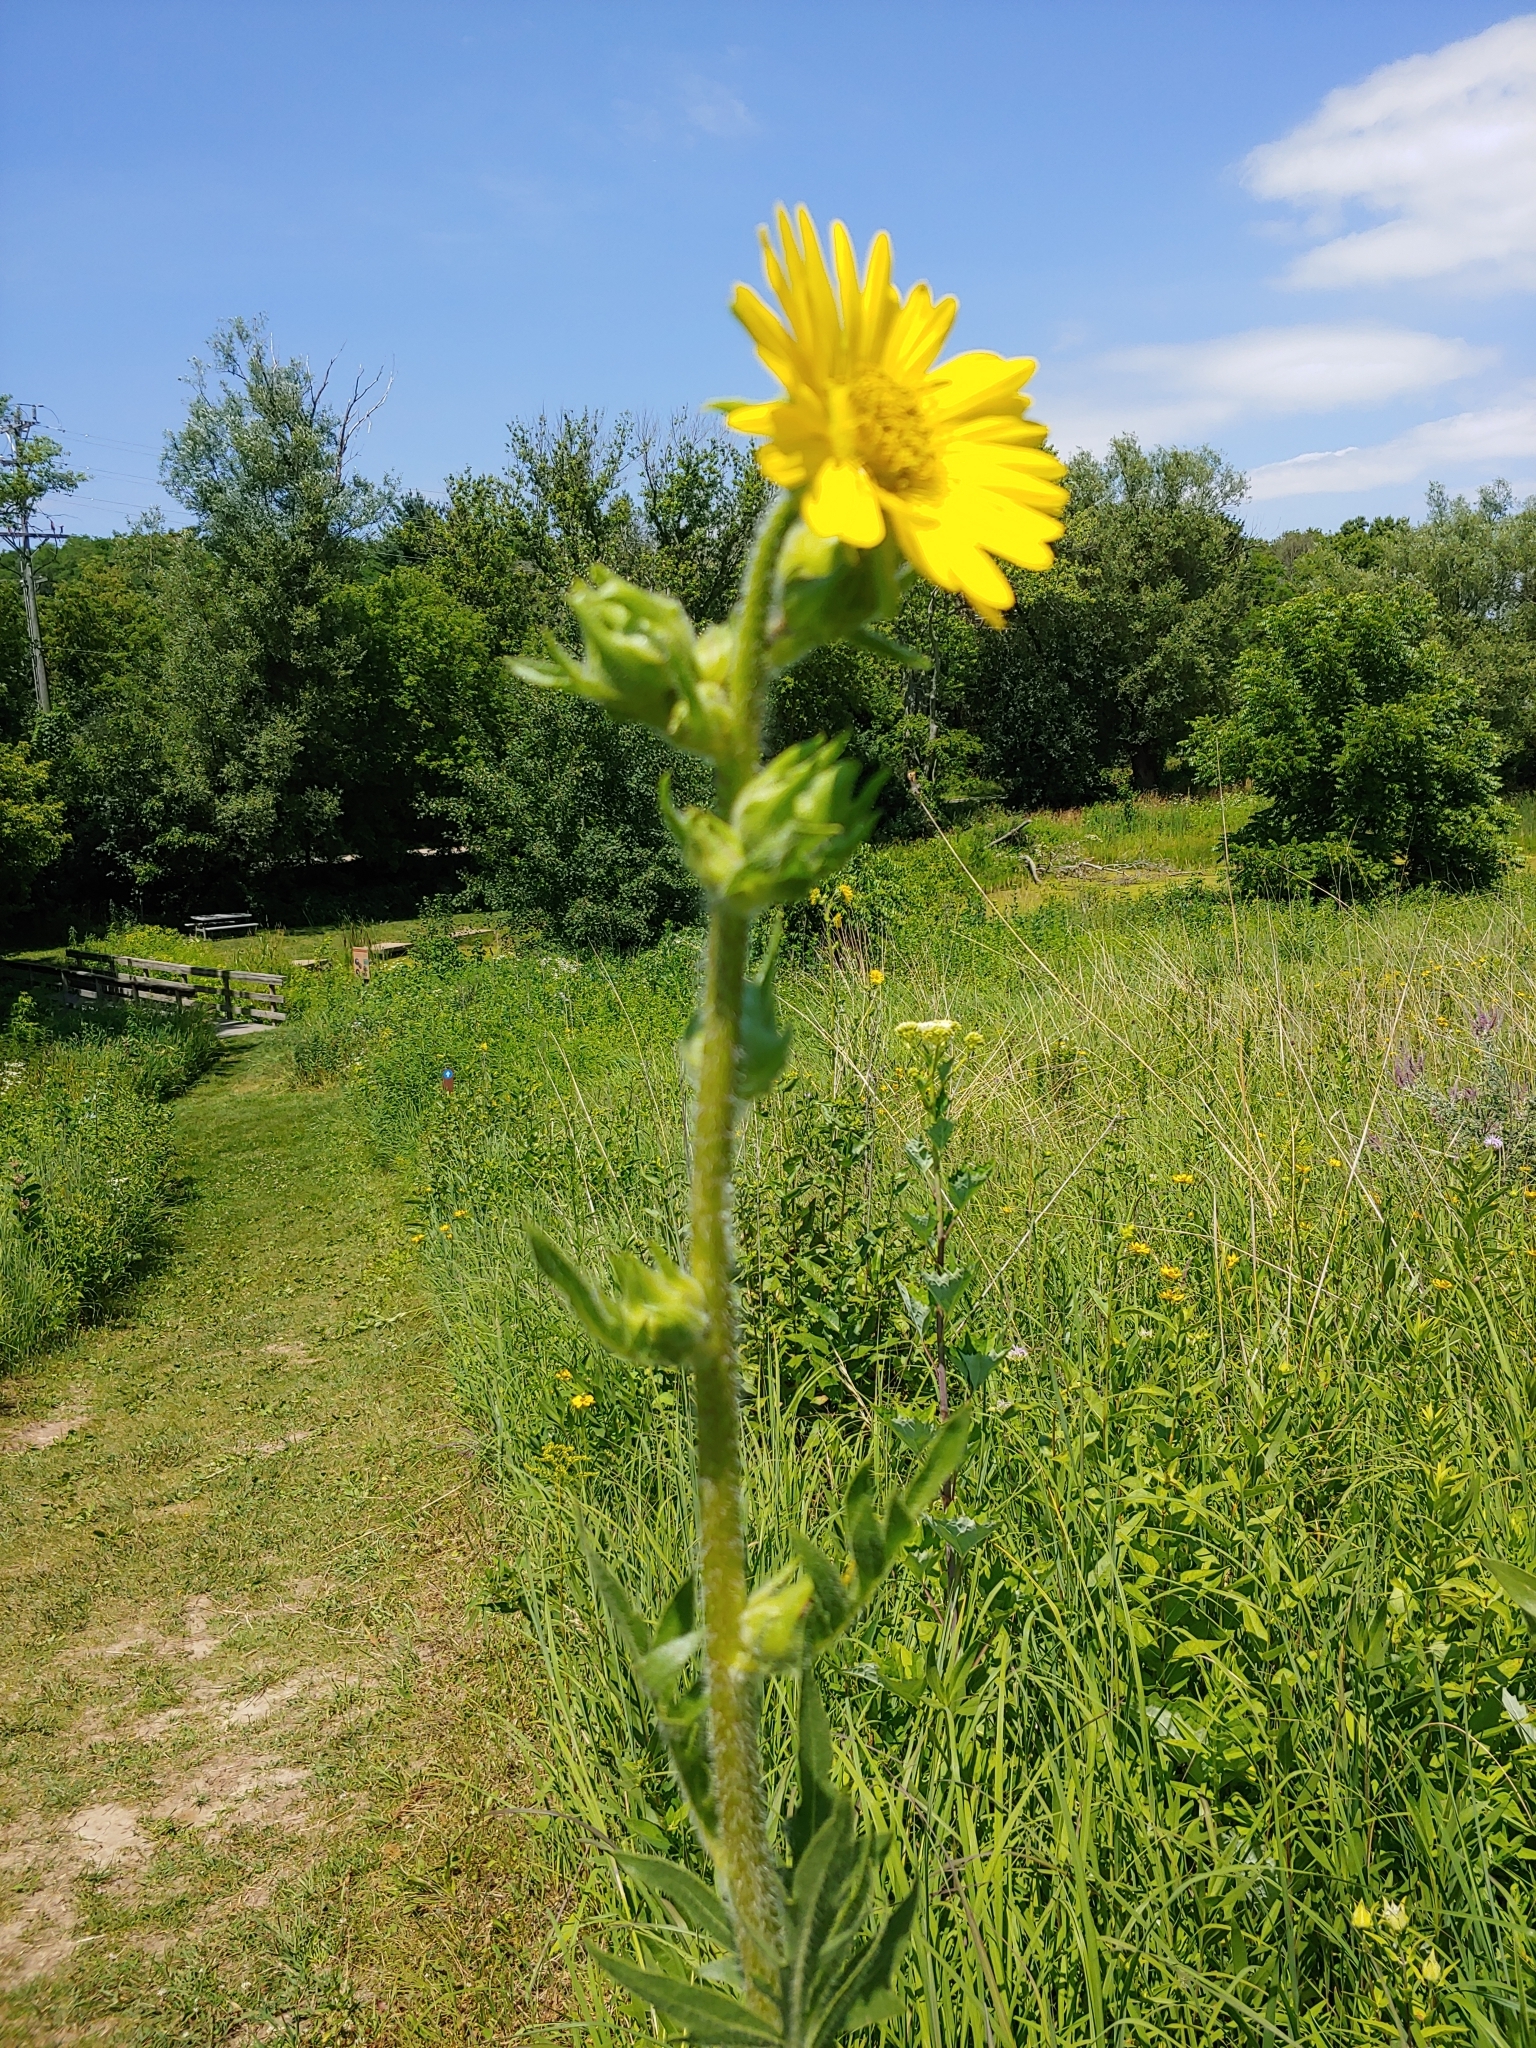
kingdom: Plantae
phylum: Tracheophyta
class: Magnoliopsida
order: Asterales
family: Asteraceae
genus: Silphium
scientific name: Silphium laciniatum
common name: Polarplant
